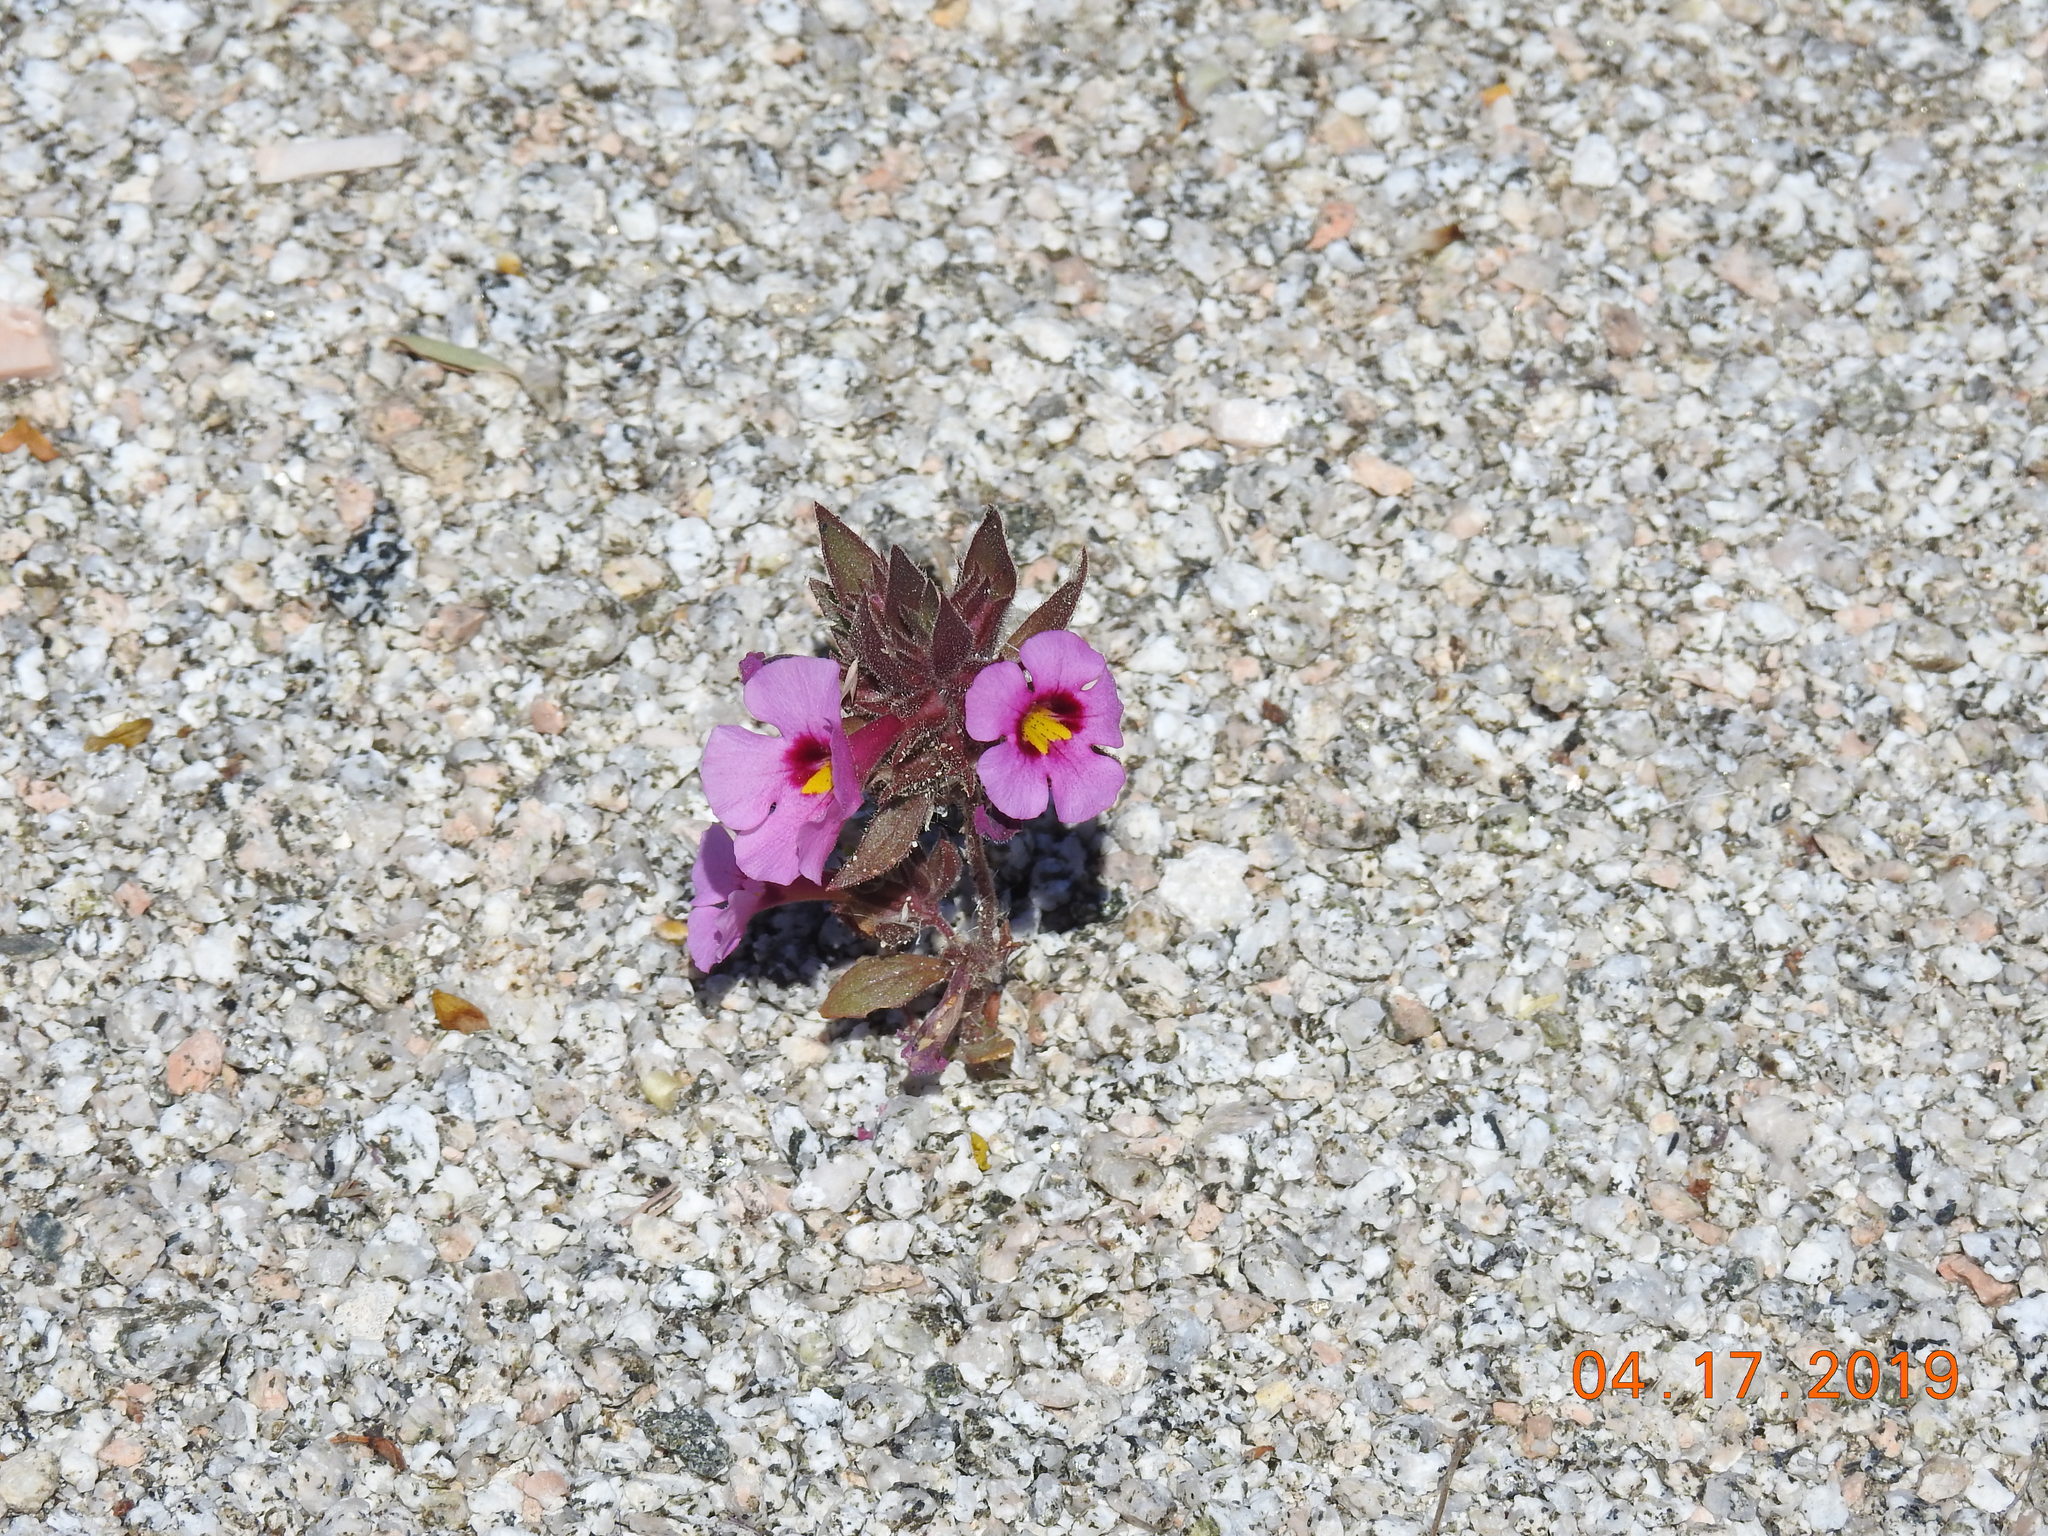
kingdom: Plantae
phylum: Tracheophyta
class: Magnoliopsida
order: Lamiales
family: Phrymaceae
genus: Diplacus
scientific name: Diplacus bigelovii
